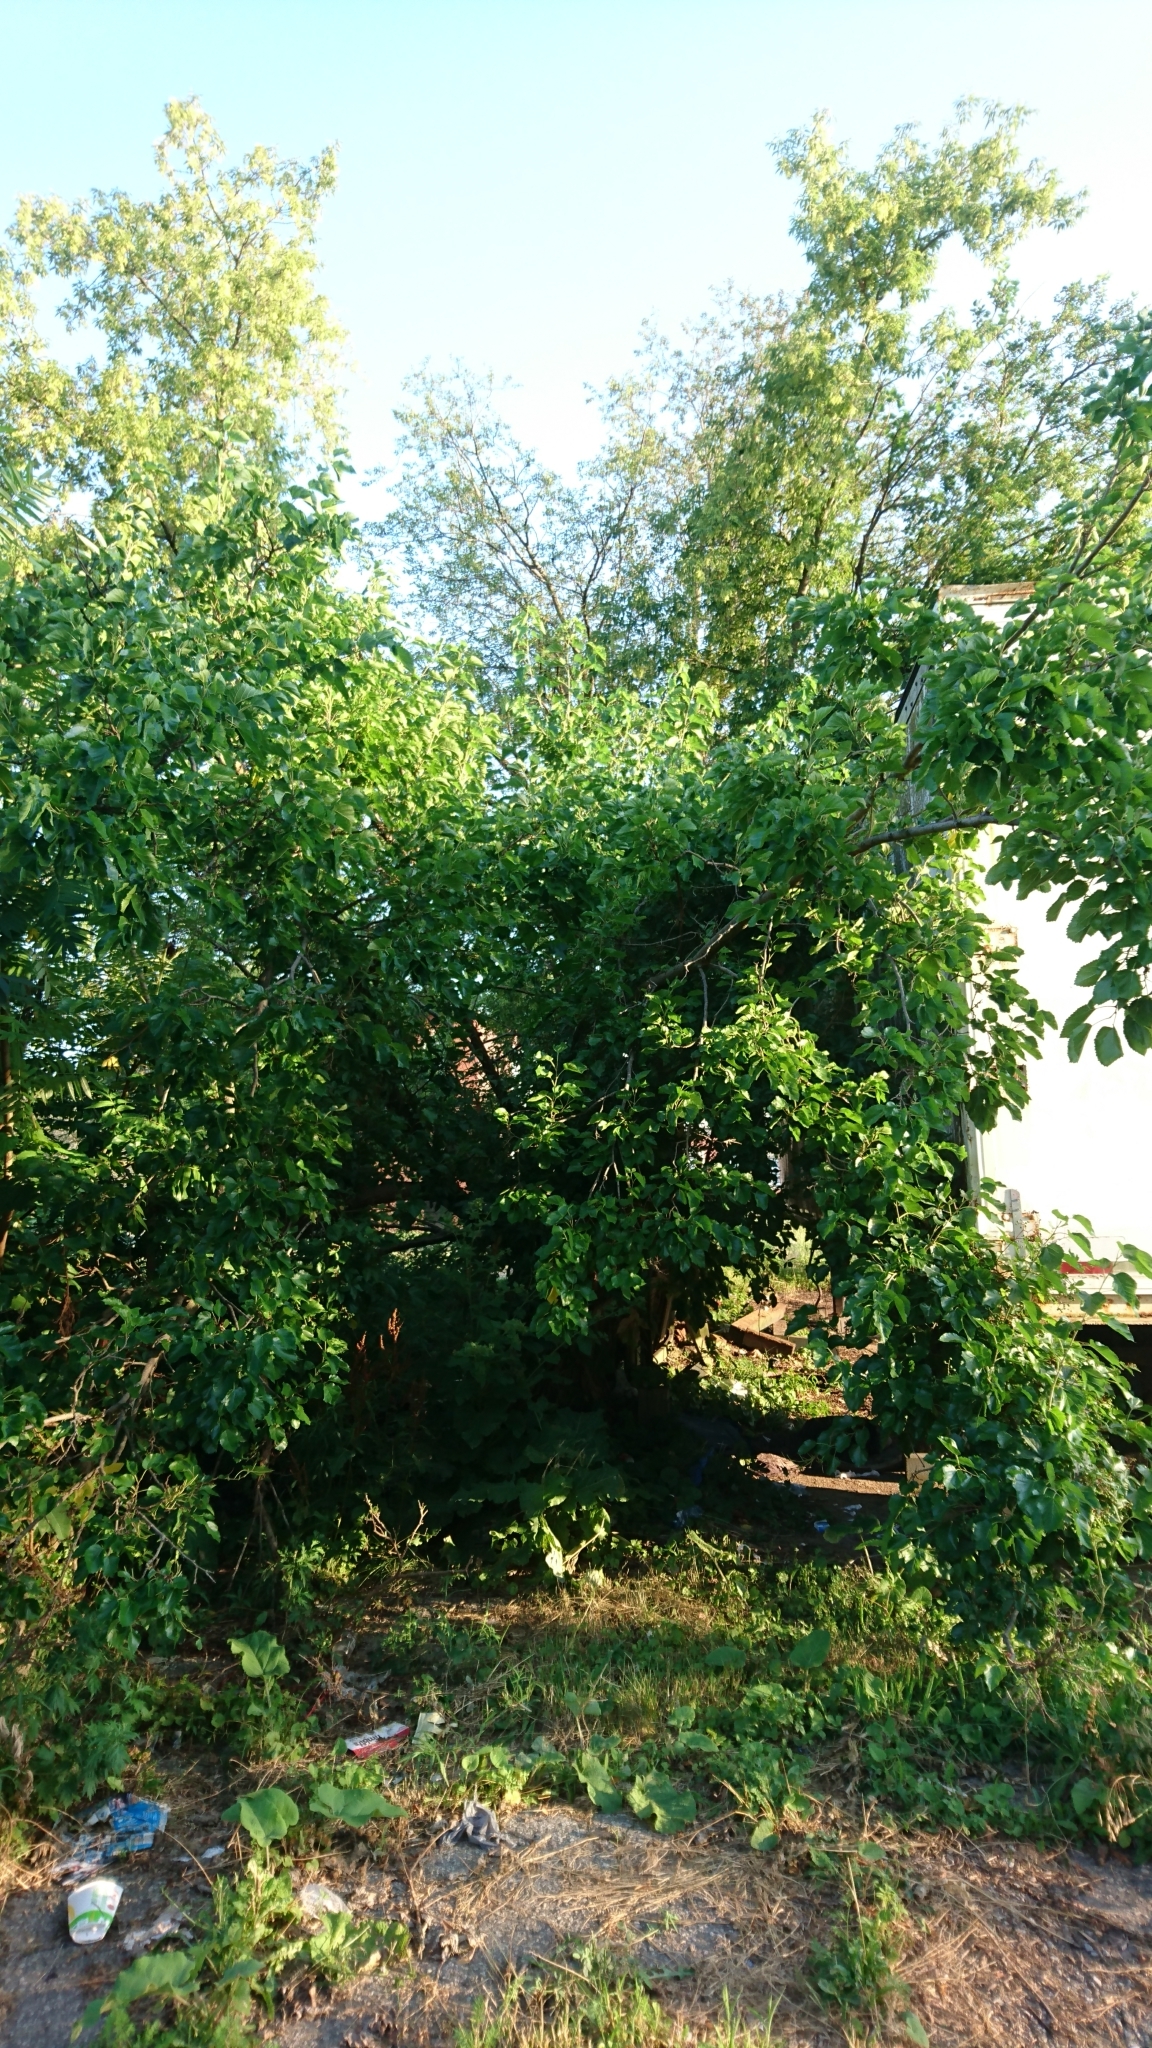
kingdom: Plantae
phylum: Tracheophyta
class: Magnoliopsida
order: Rosales
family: Moraceae
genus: Morus
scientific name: Morus alba
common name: White mulberry
